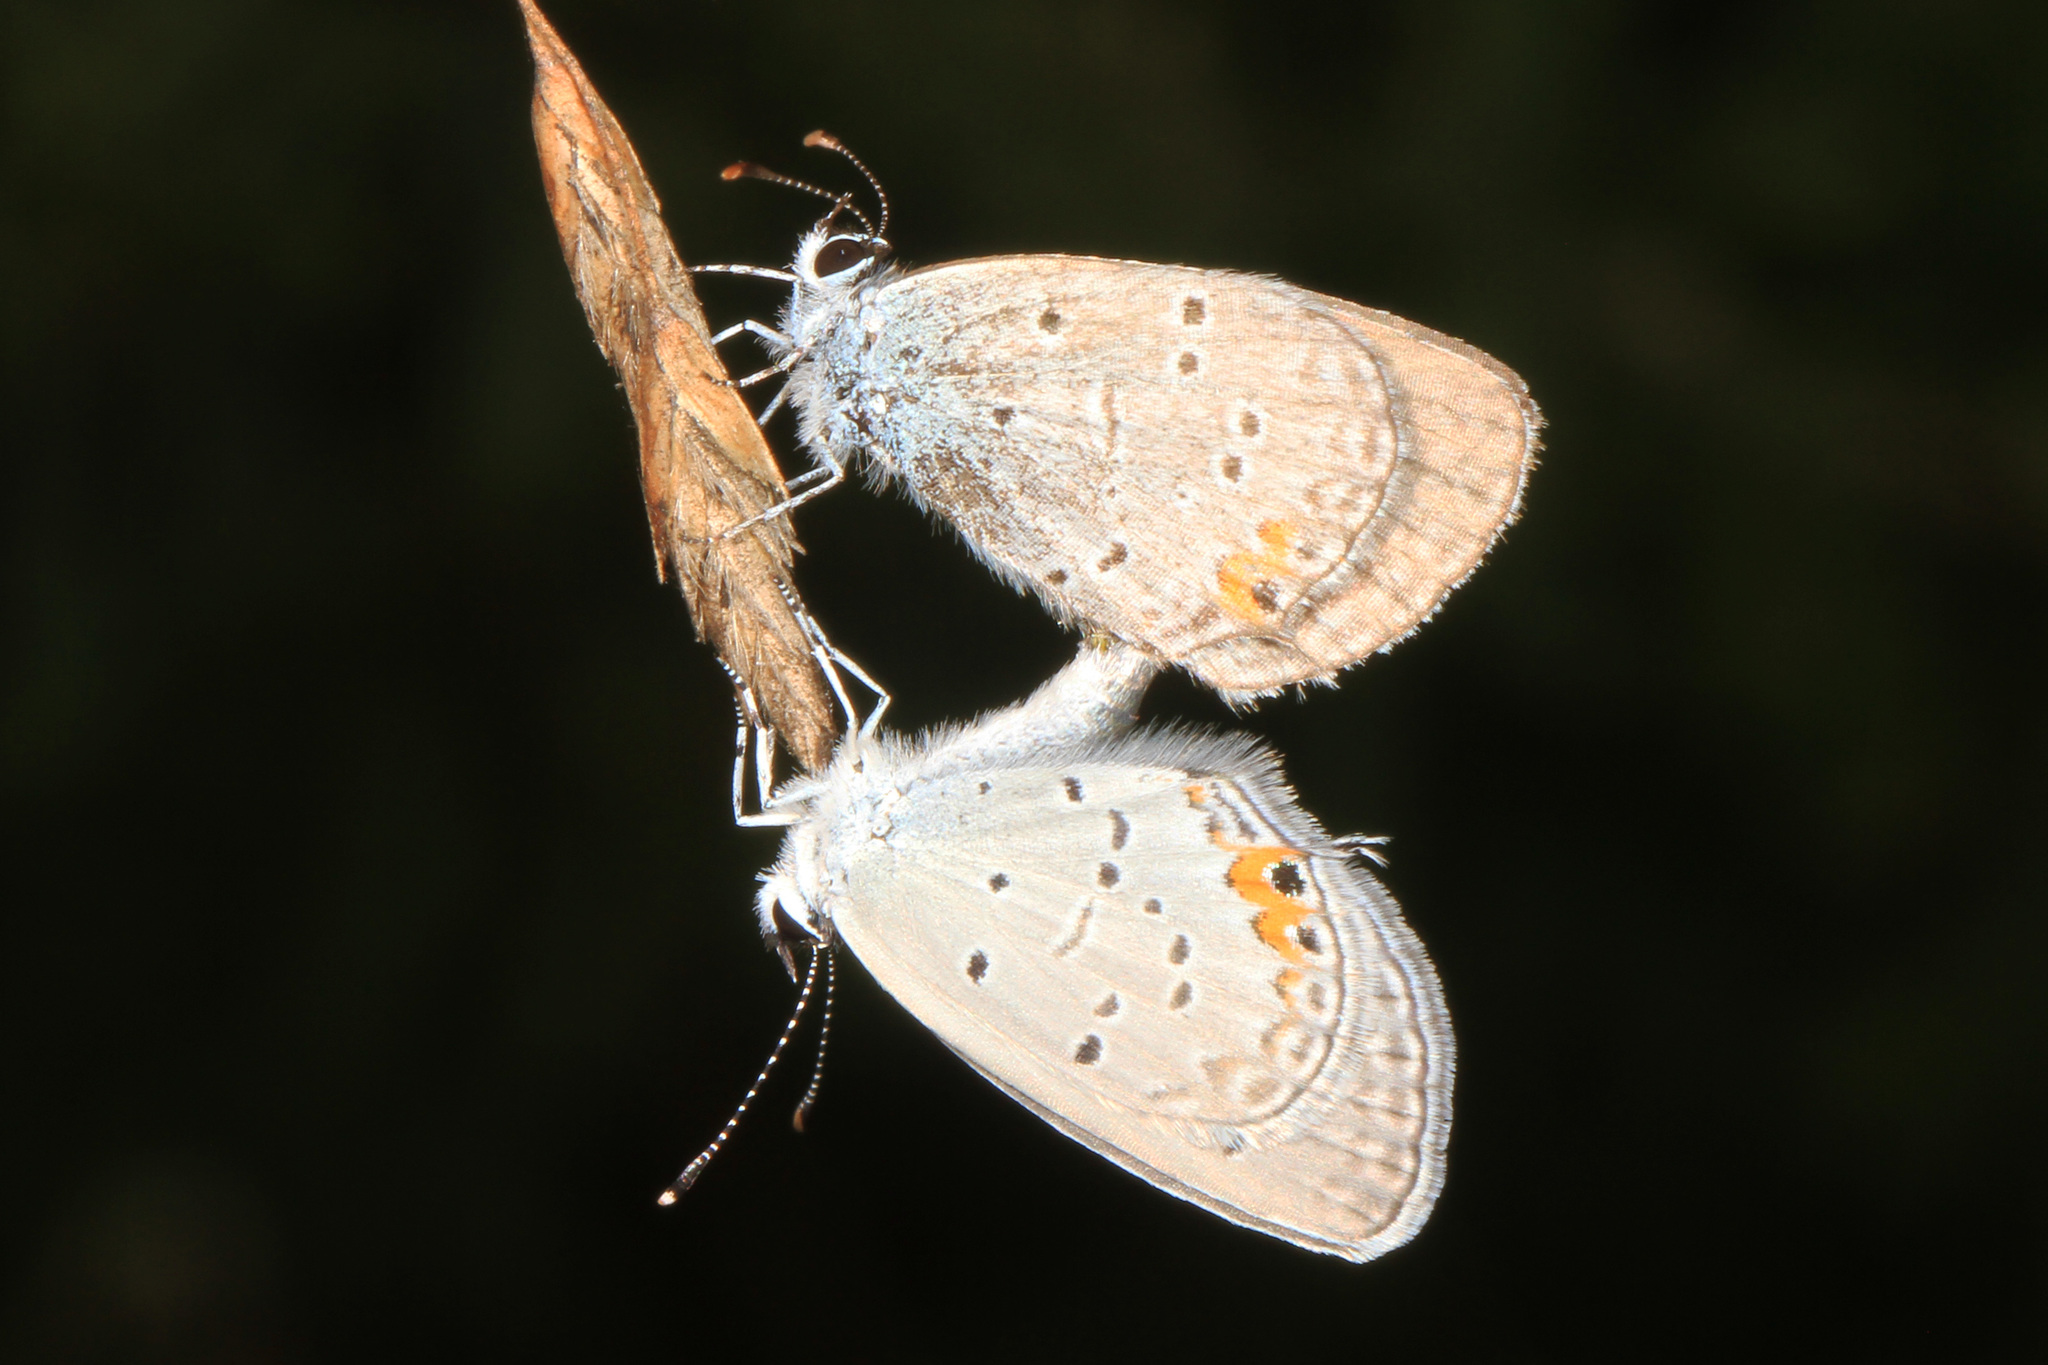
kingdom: Animalia
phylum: Arthropoda
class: Insecta
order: Lepidoptera
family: Lycaenidae
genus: Elkalyce
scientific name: Elkalyce comyntas
